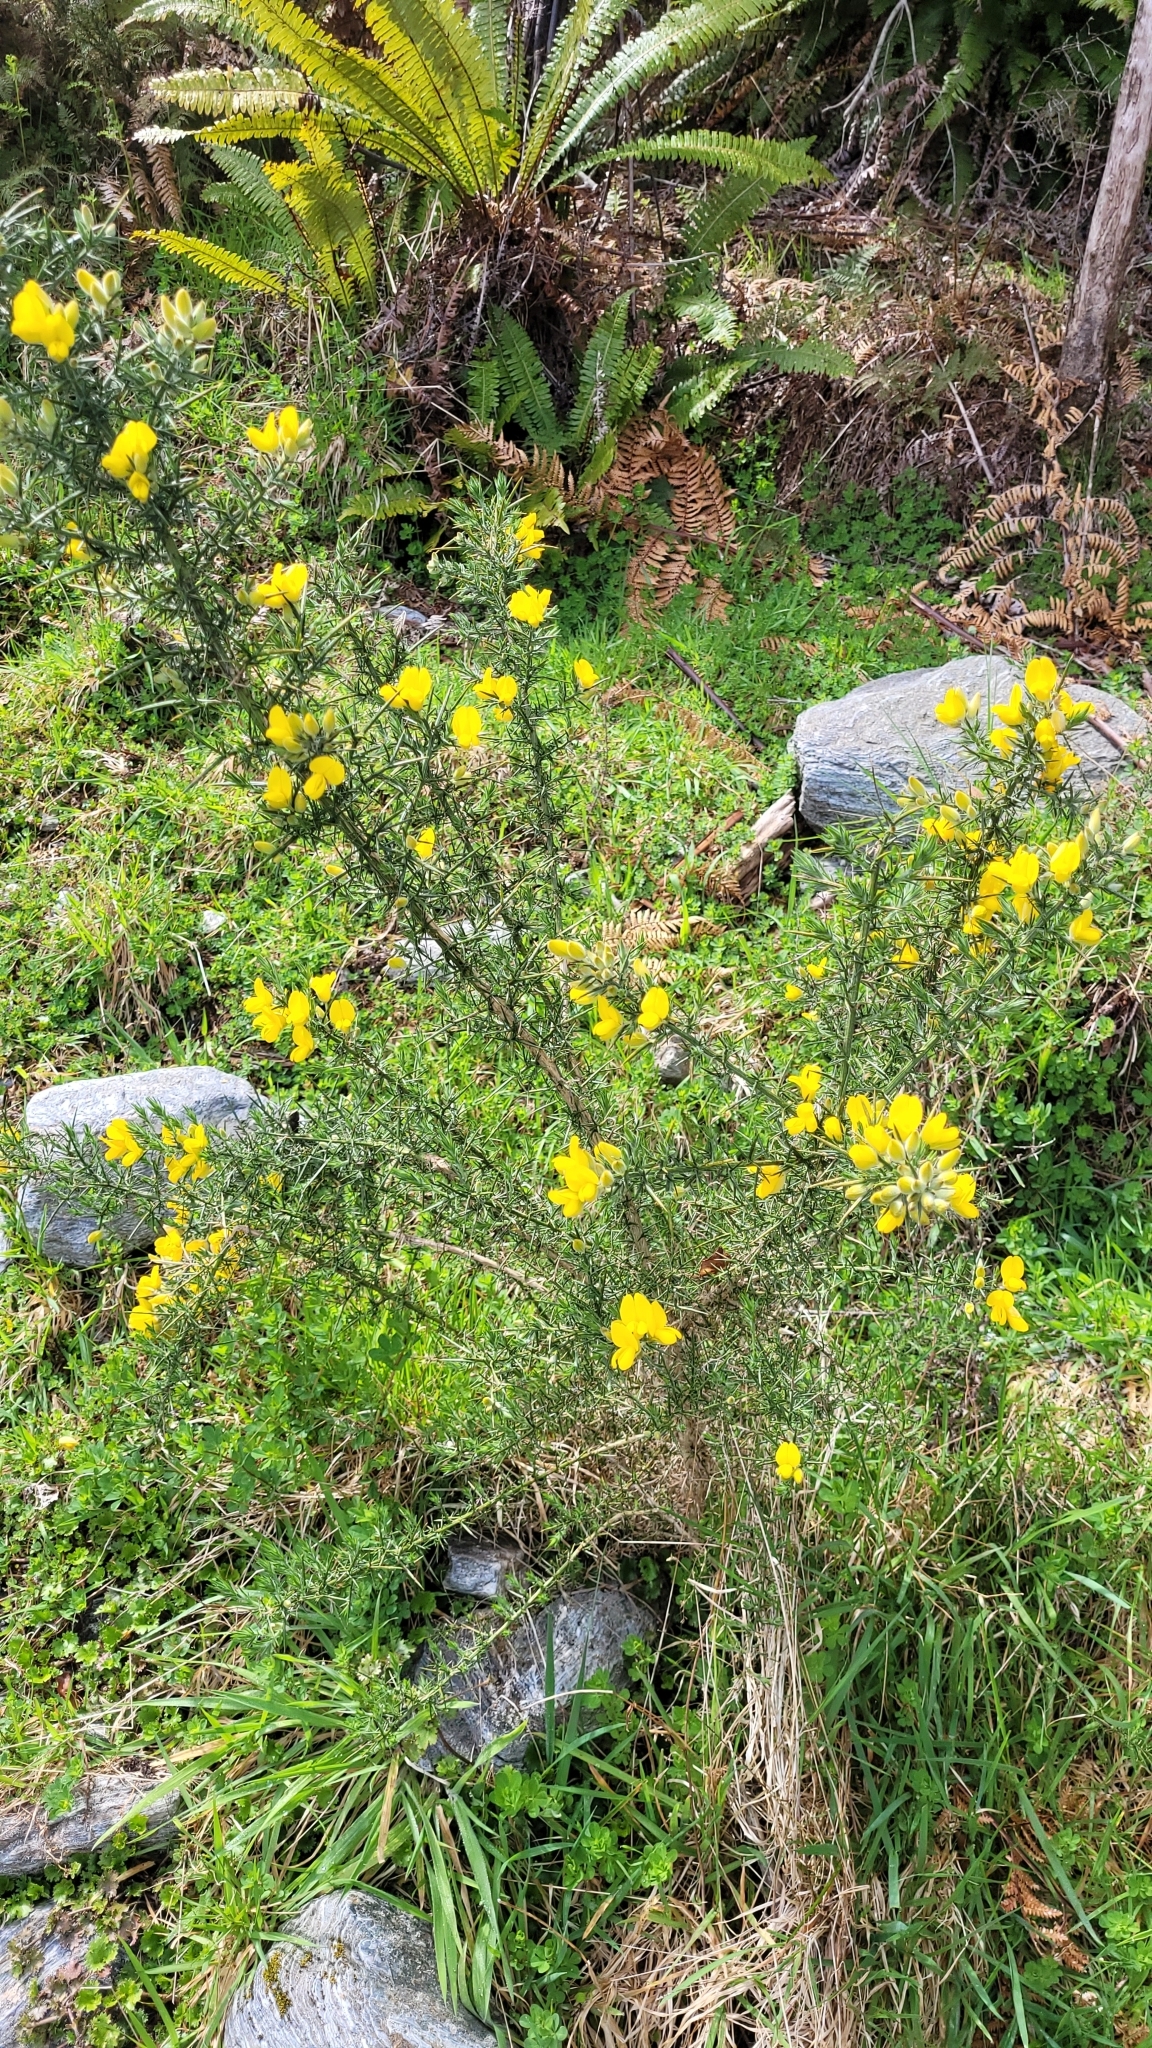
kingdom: Plantae
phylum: Tracheophyta
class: Magnoliopsida
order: Fabales
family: Fabaceae
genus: Ulex
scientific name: Ulex europaeus
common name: Common gorse
